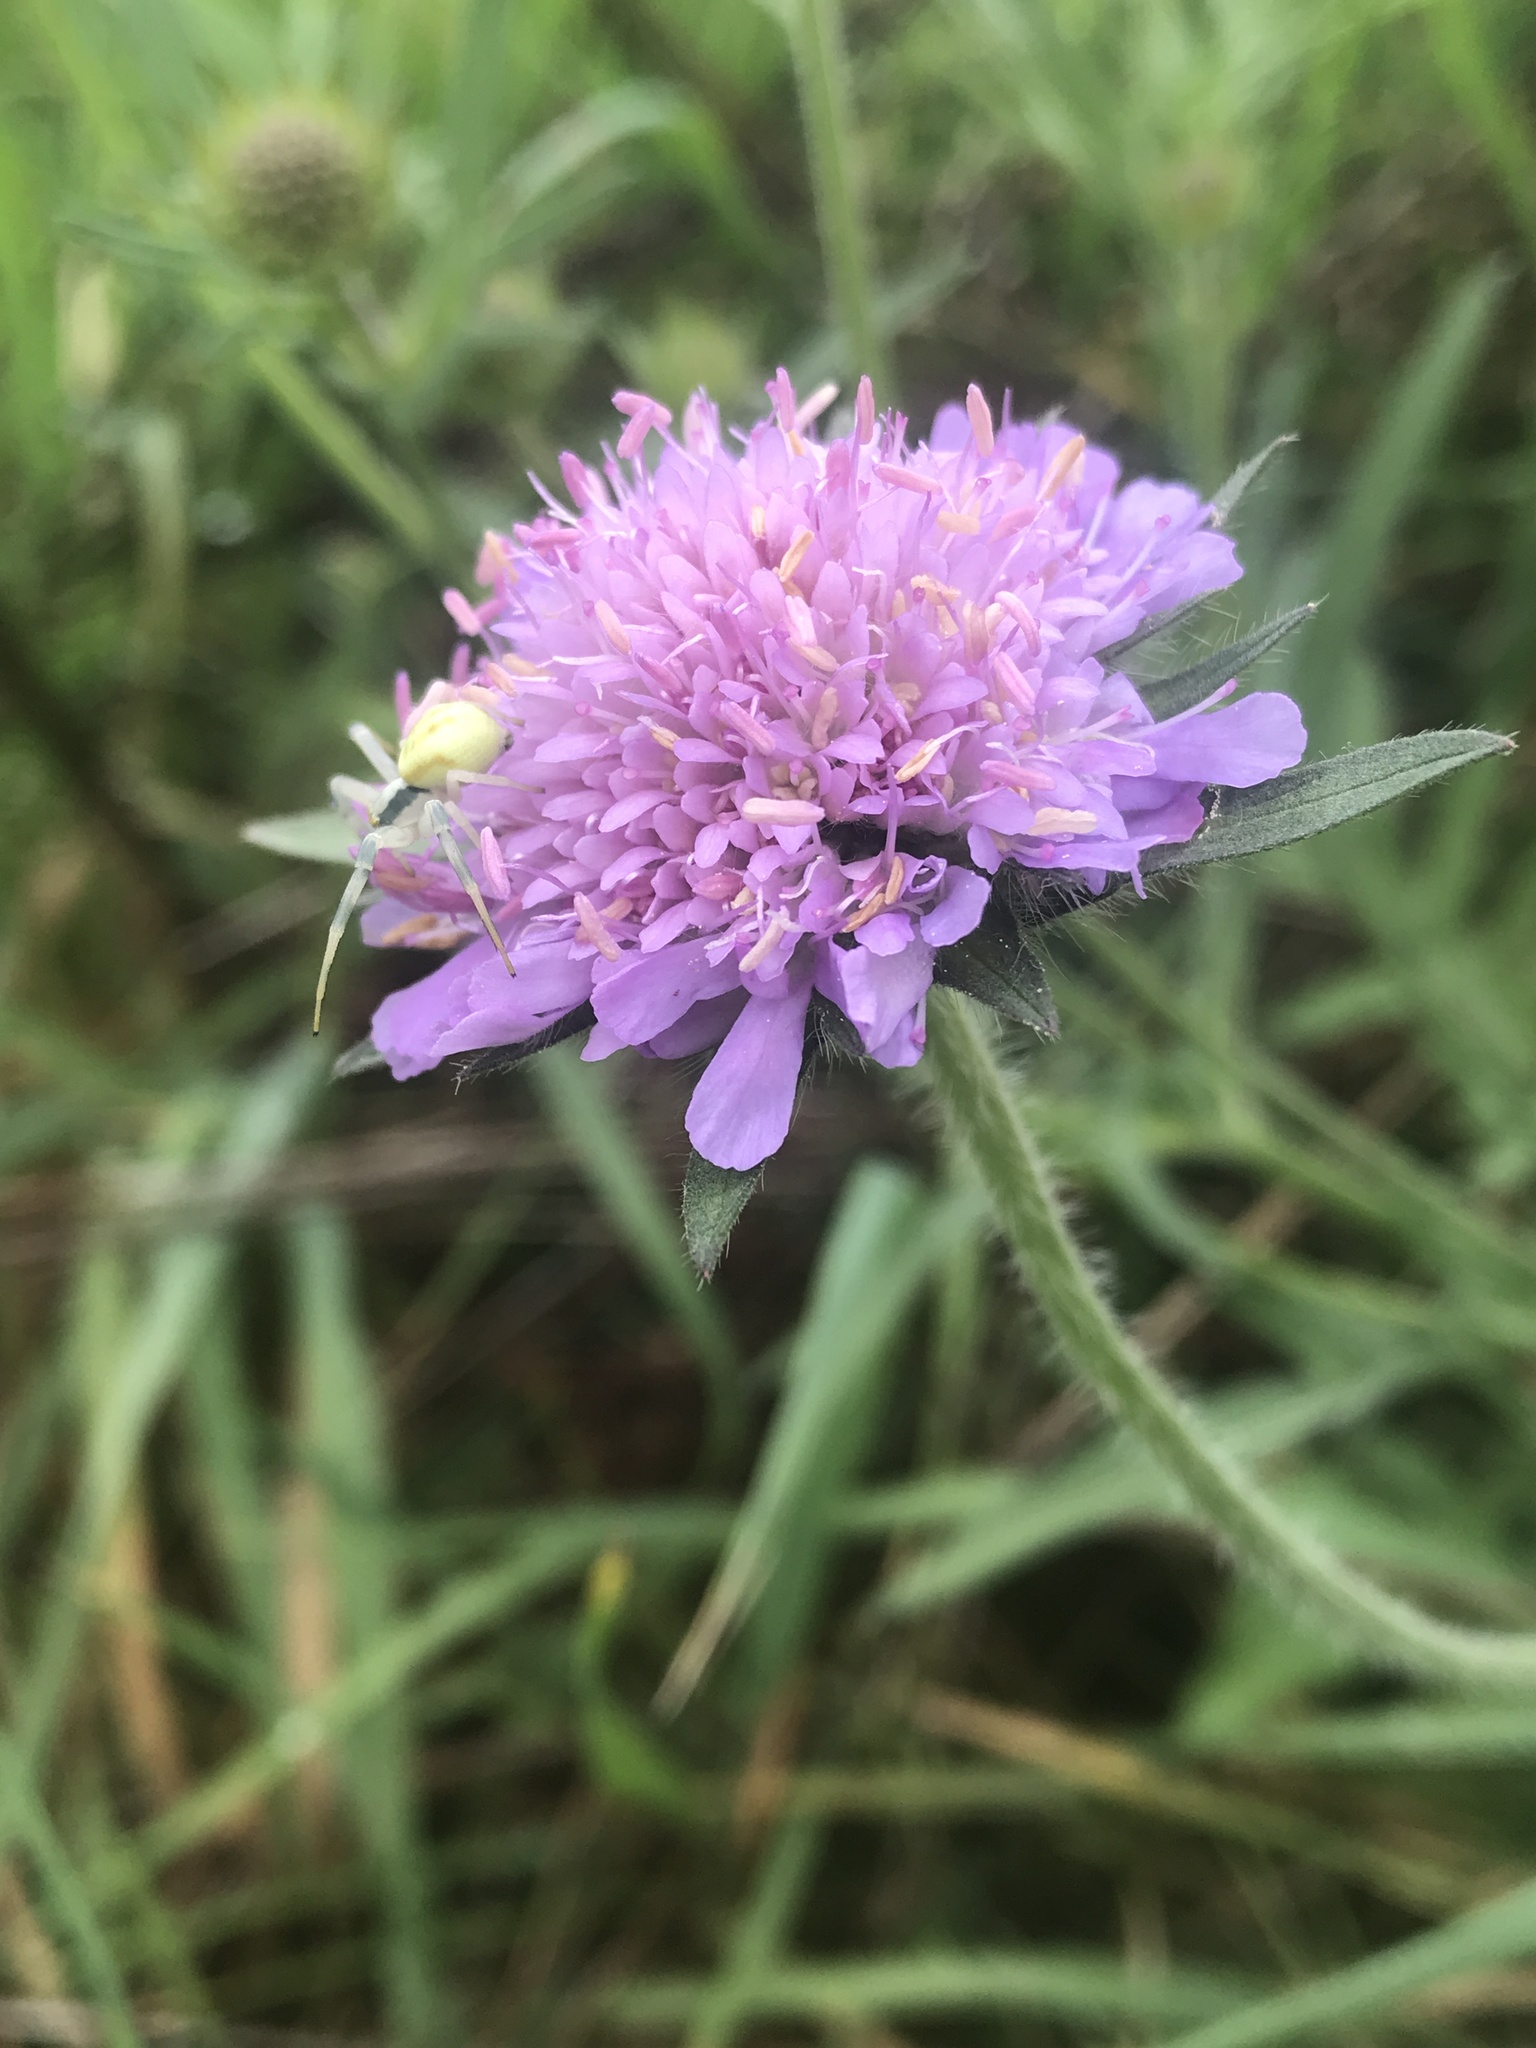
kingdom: Animalia
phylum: Arthropoda
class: Arachnida
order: Araneae
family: Thomisidae
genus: Misumena
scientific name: Misumena vatia
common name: Goldenrod crab spider
